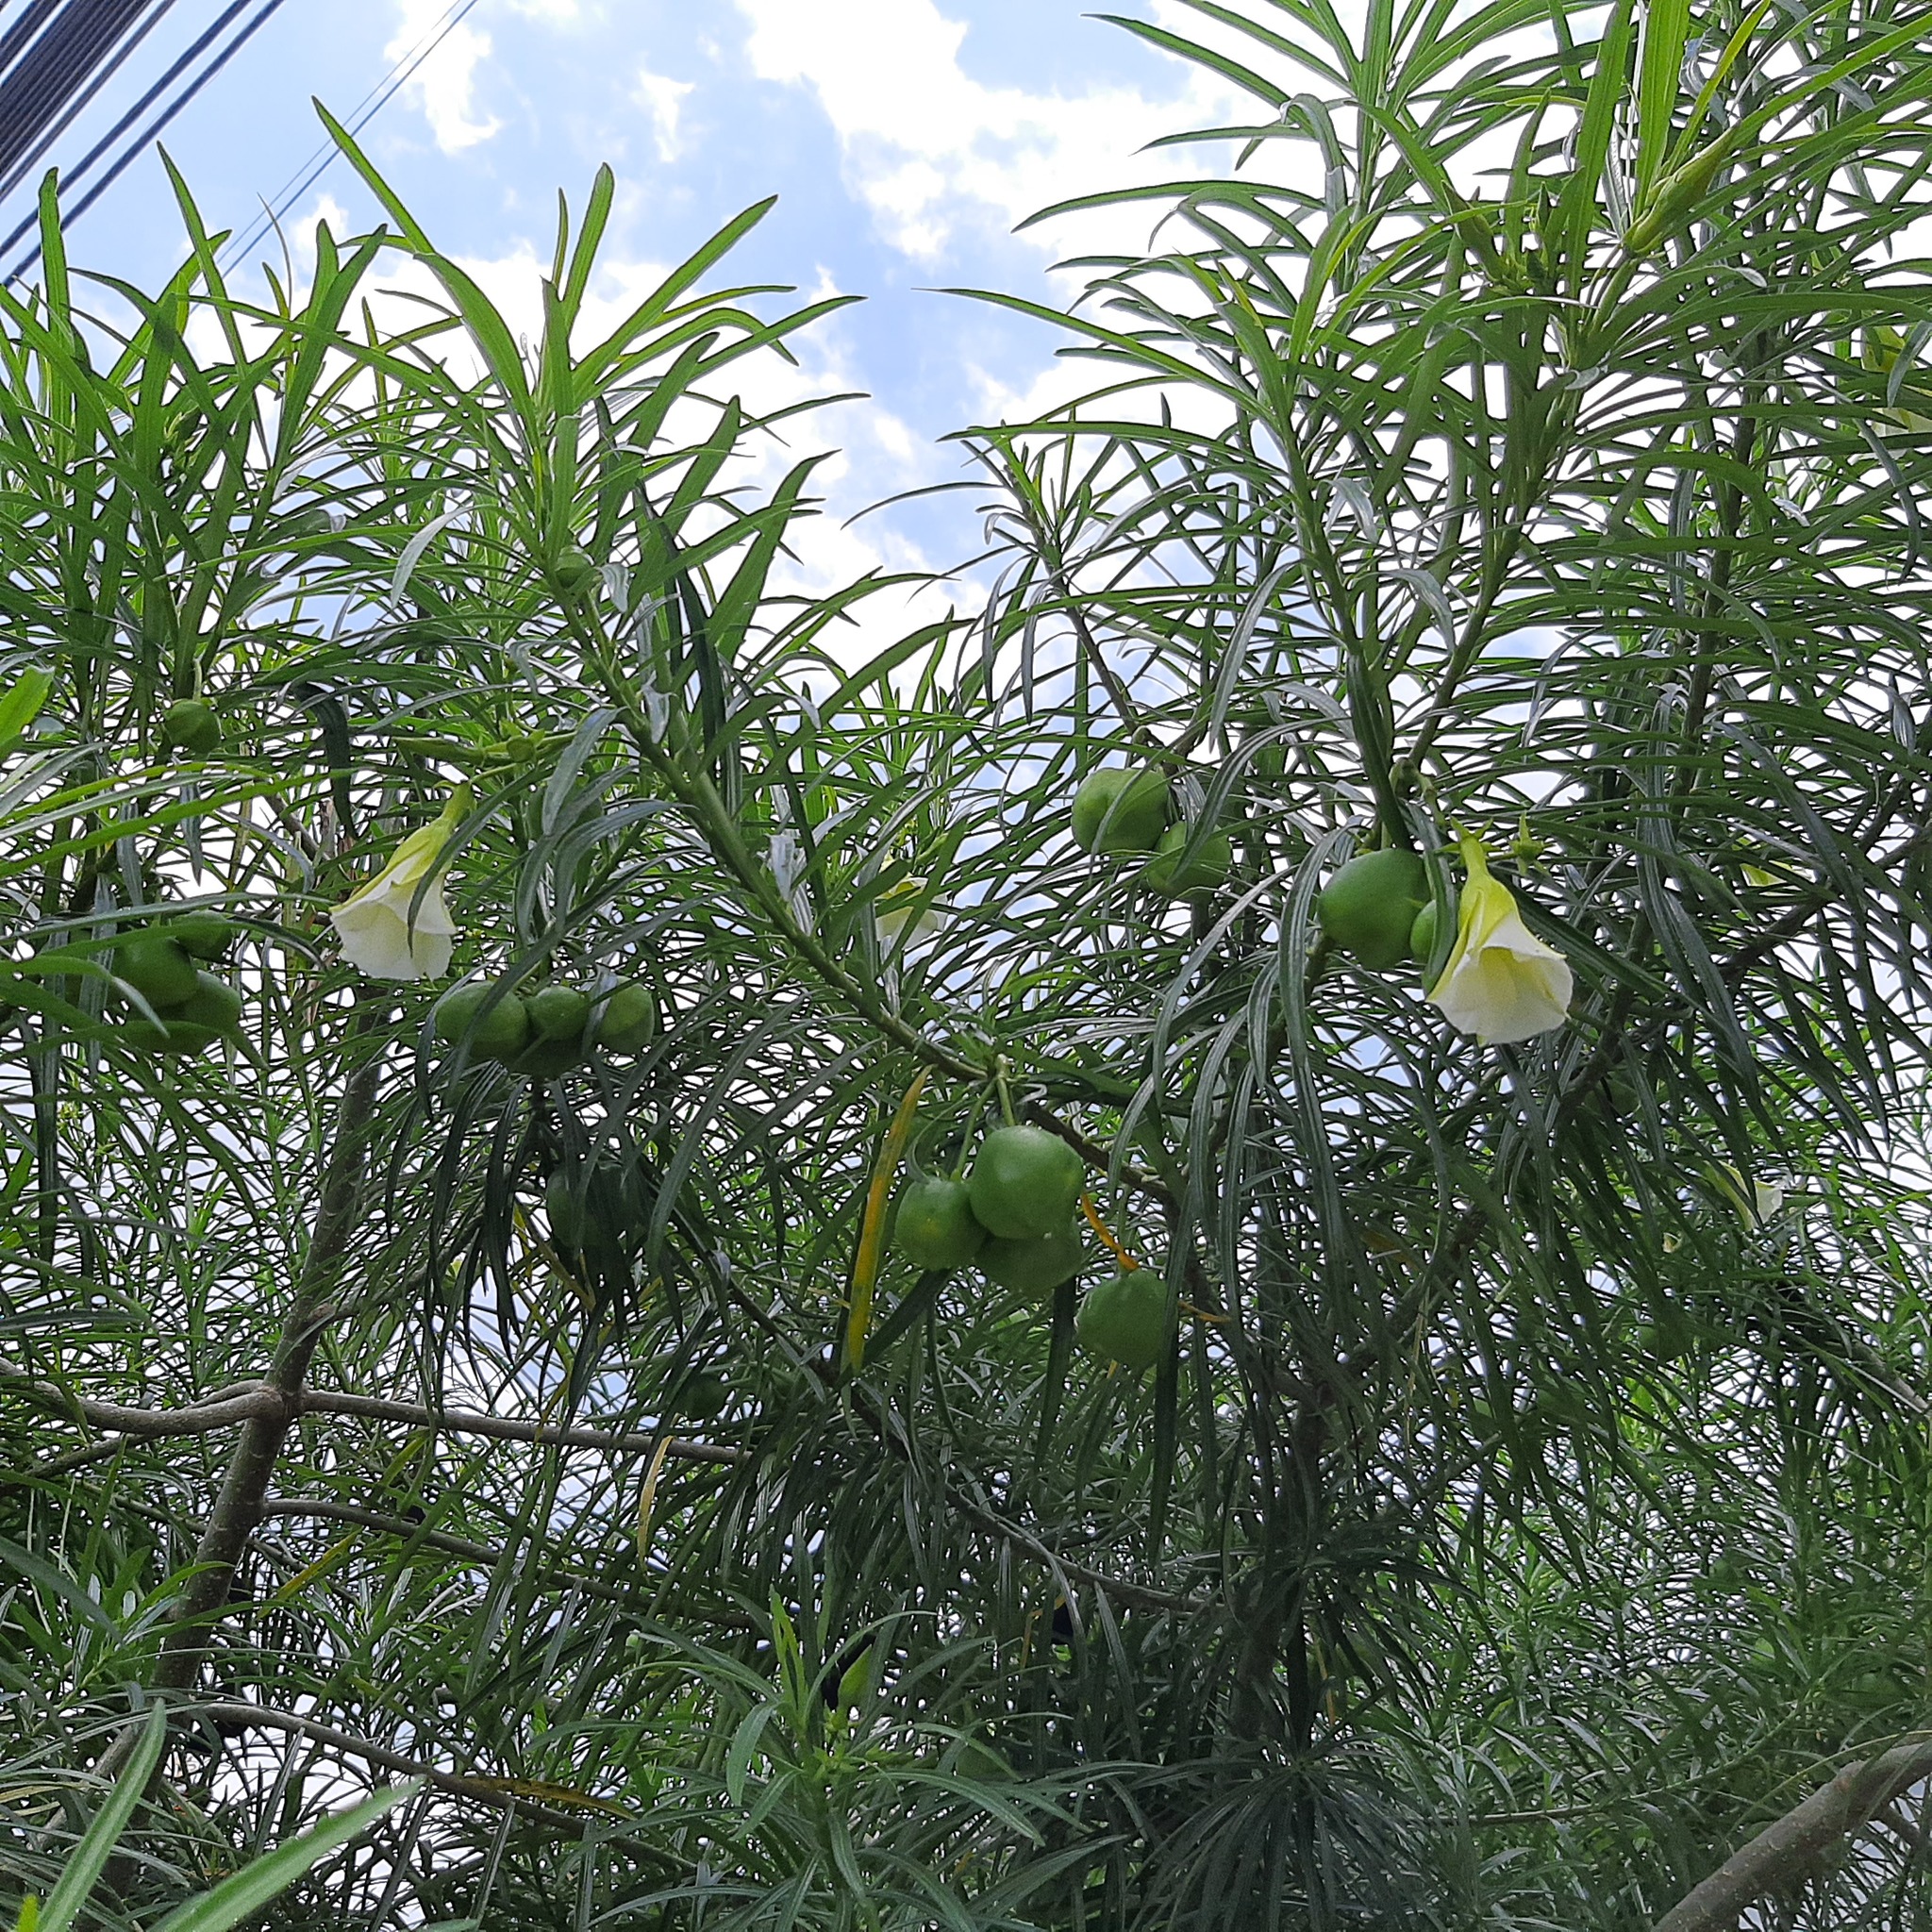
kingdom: Plantae
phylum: Tracheophyta
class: Magnoliopsida
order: Gentianales
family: Apocynaceae
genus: Cascabela
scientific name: Cascabela thevetia
